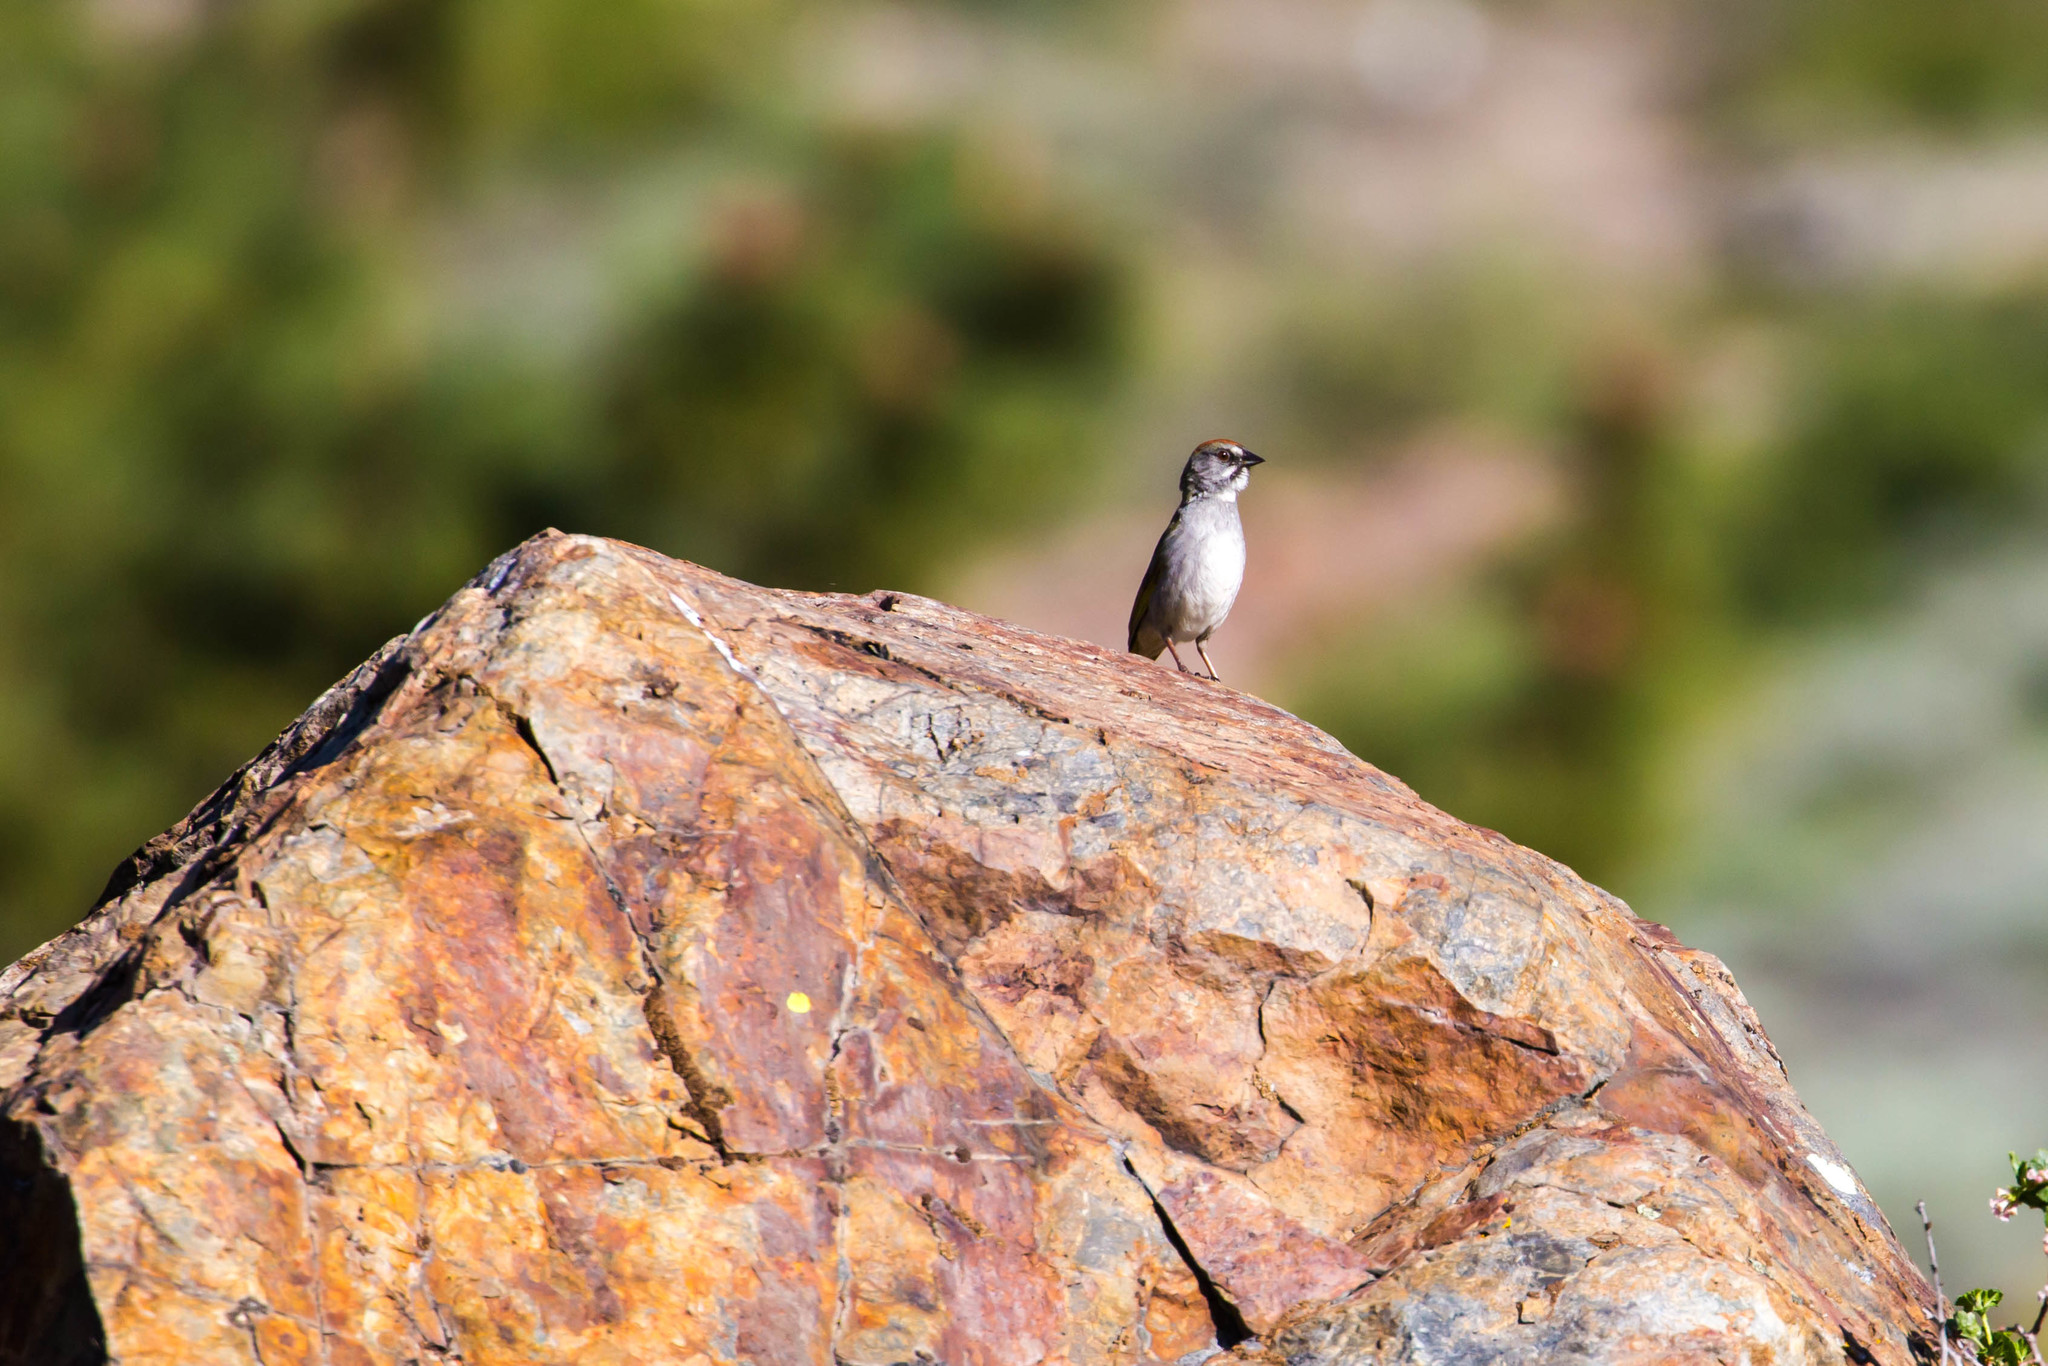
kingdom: Animalia
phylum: Chordata
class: Aves
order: Passeriformes
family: Passerellidae
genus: Pipilo
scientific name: Pipilo chlorurus
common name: Green-tailed towhee
